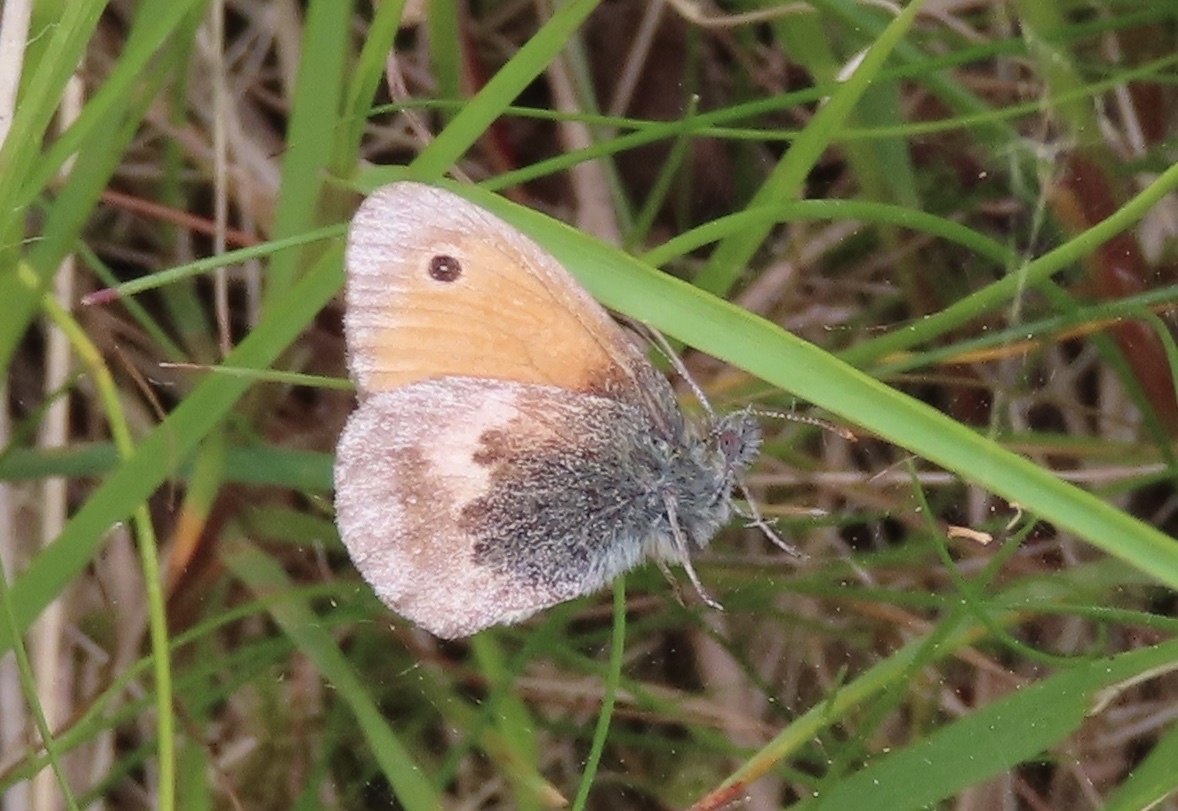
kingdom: Animalia
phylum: Arthropoda
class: Insecta
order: Lepidoptera
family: Nymphalidae
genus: Coenonympha
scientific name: Coenonympha pamphilus
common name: Small heath
